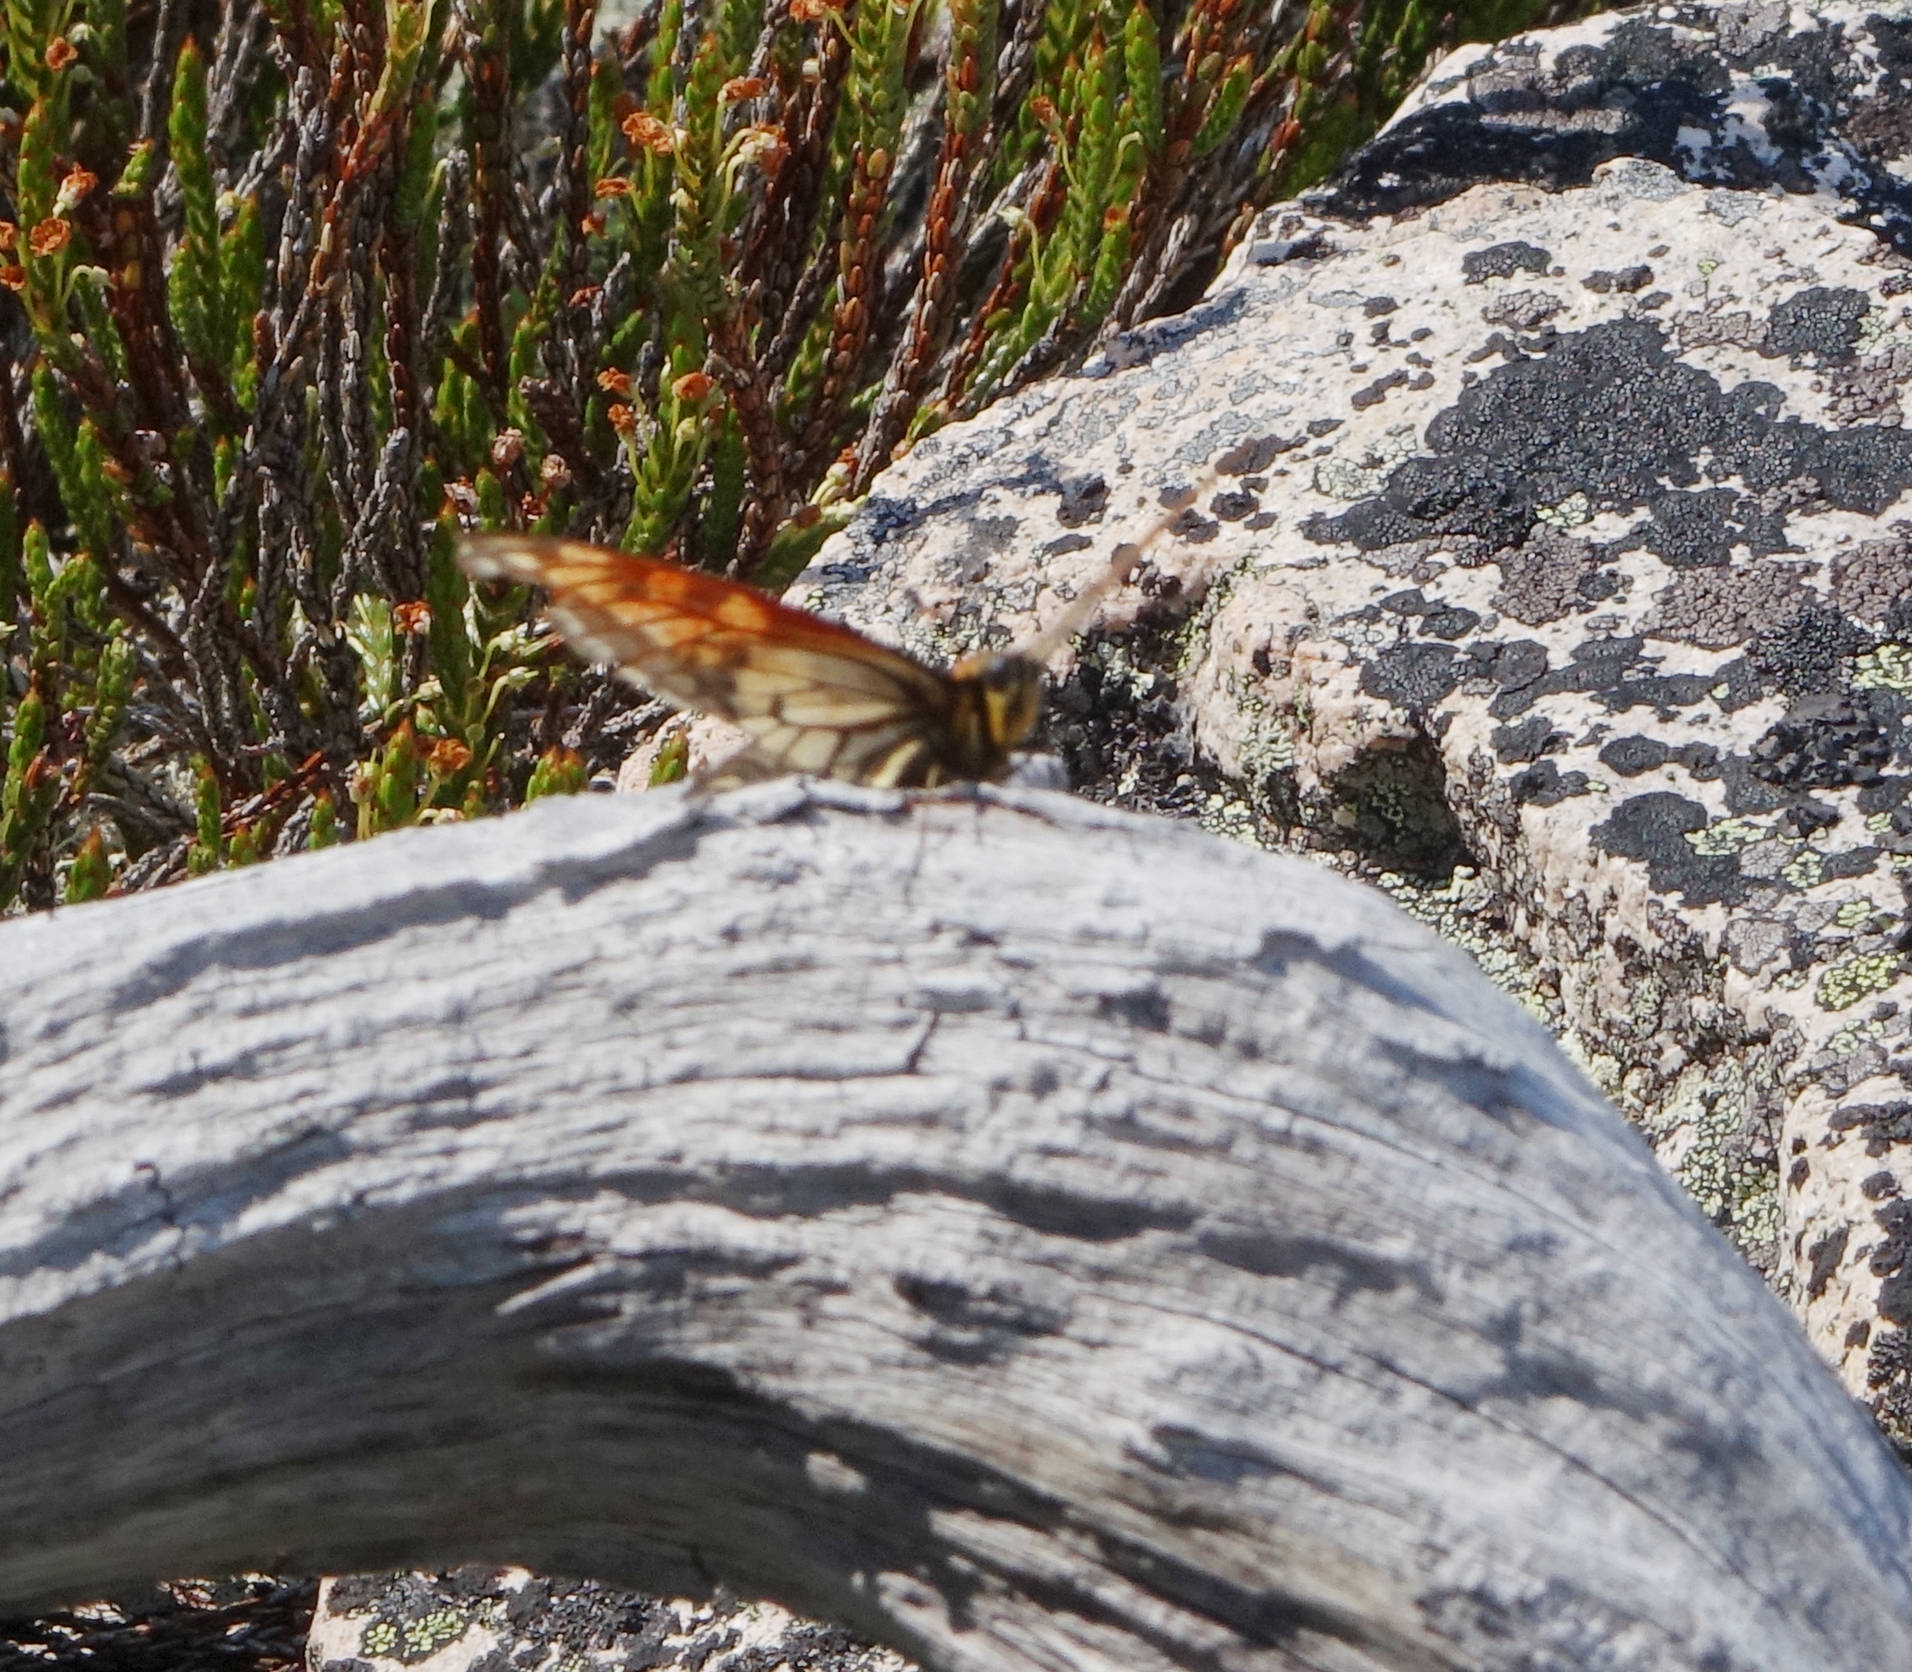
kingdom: Animalia
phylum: Arthropoda
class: Insecta
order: Lepidoptera
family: Papilionidae
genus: Papilio
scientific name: Papilio machaon
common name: Swallowtail
